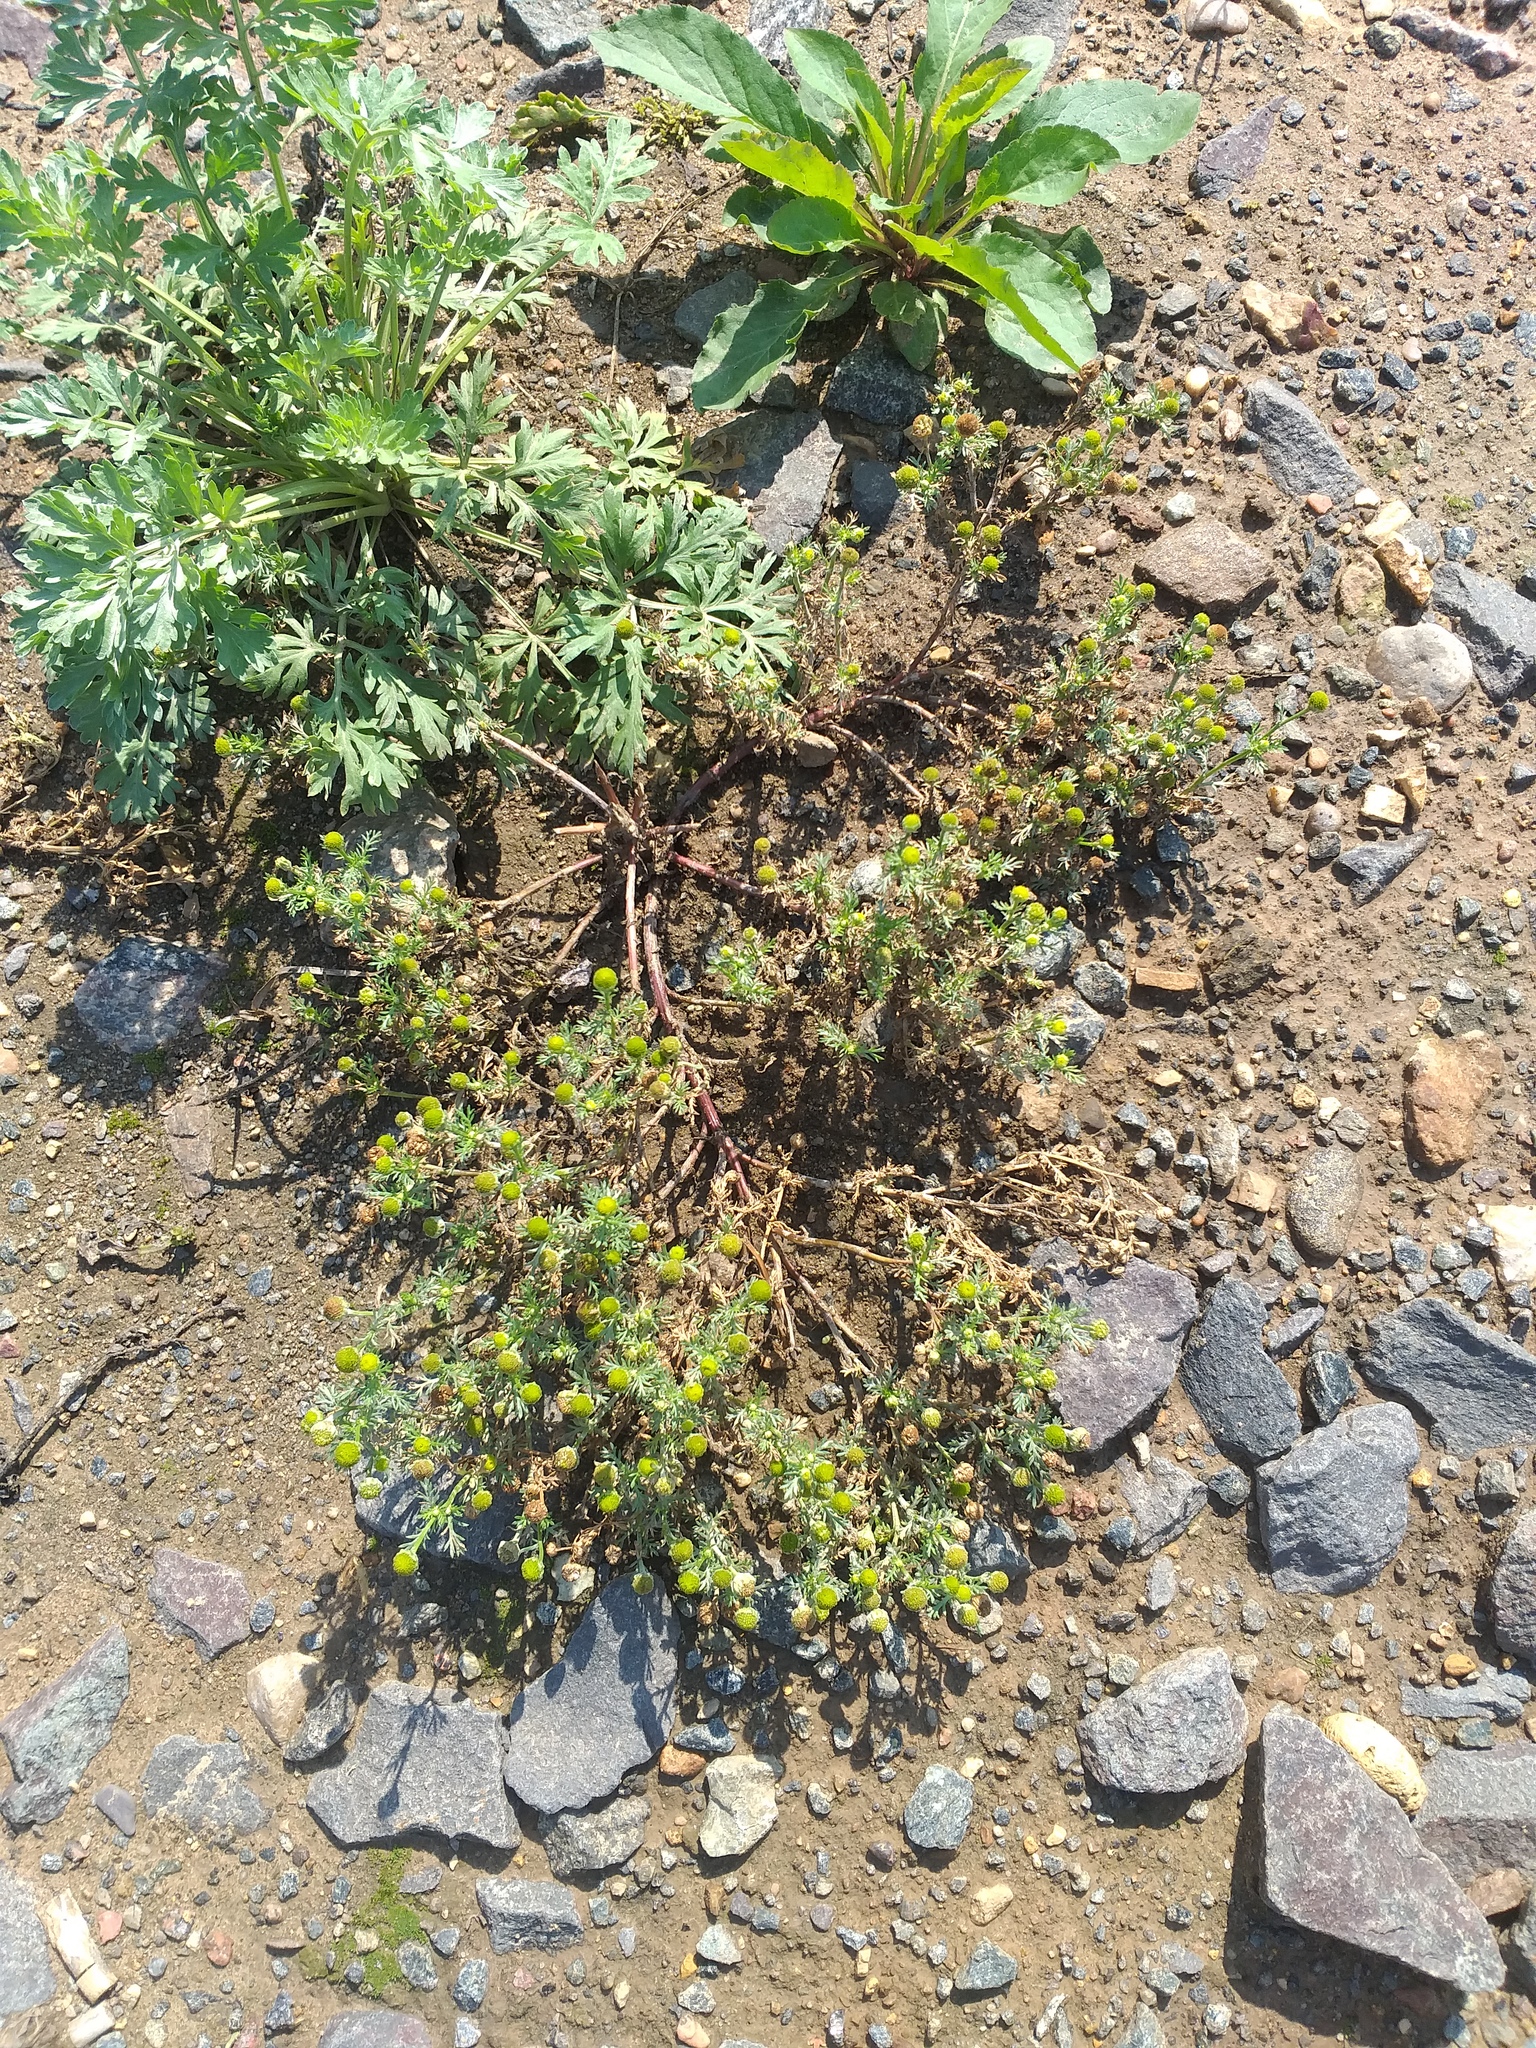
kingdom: Plantae
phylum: Tracheophyta
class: Magnoliopsida
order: Asterales
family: Asteraceae
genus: Matricaria
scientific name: Matricaria discoidea
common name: Disc mayweed
